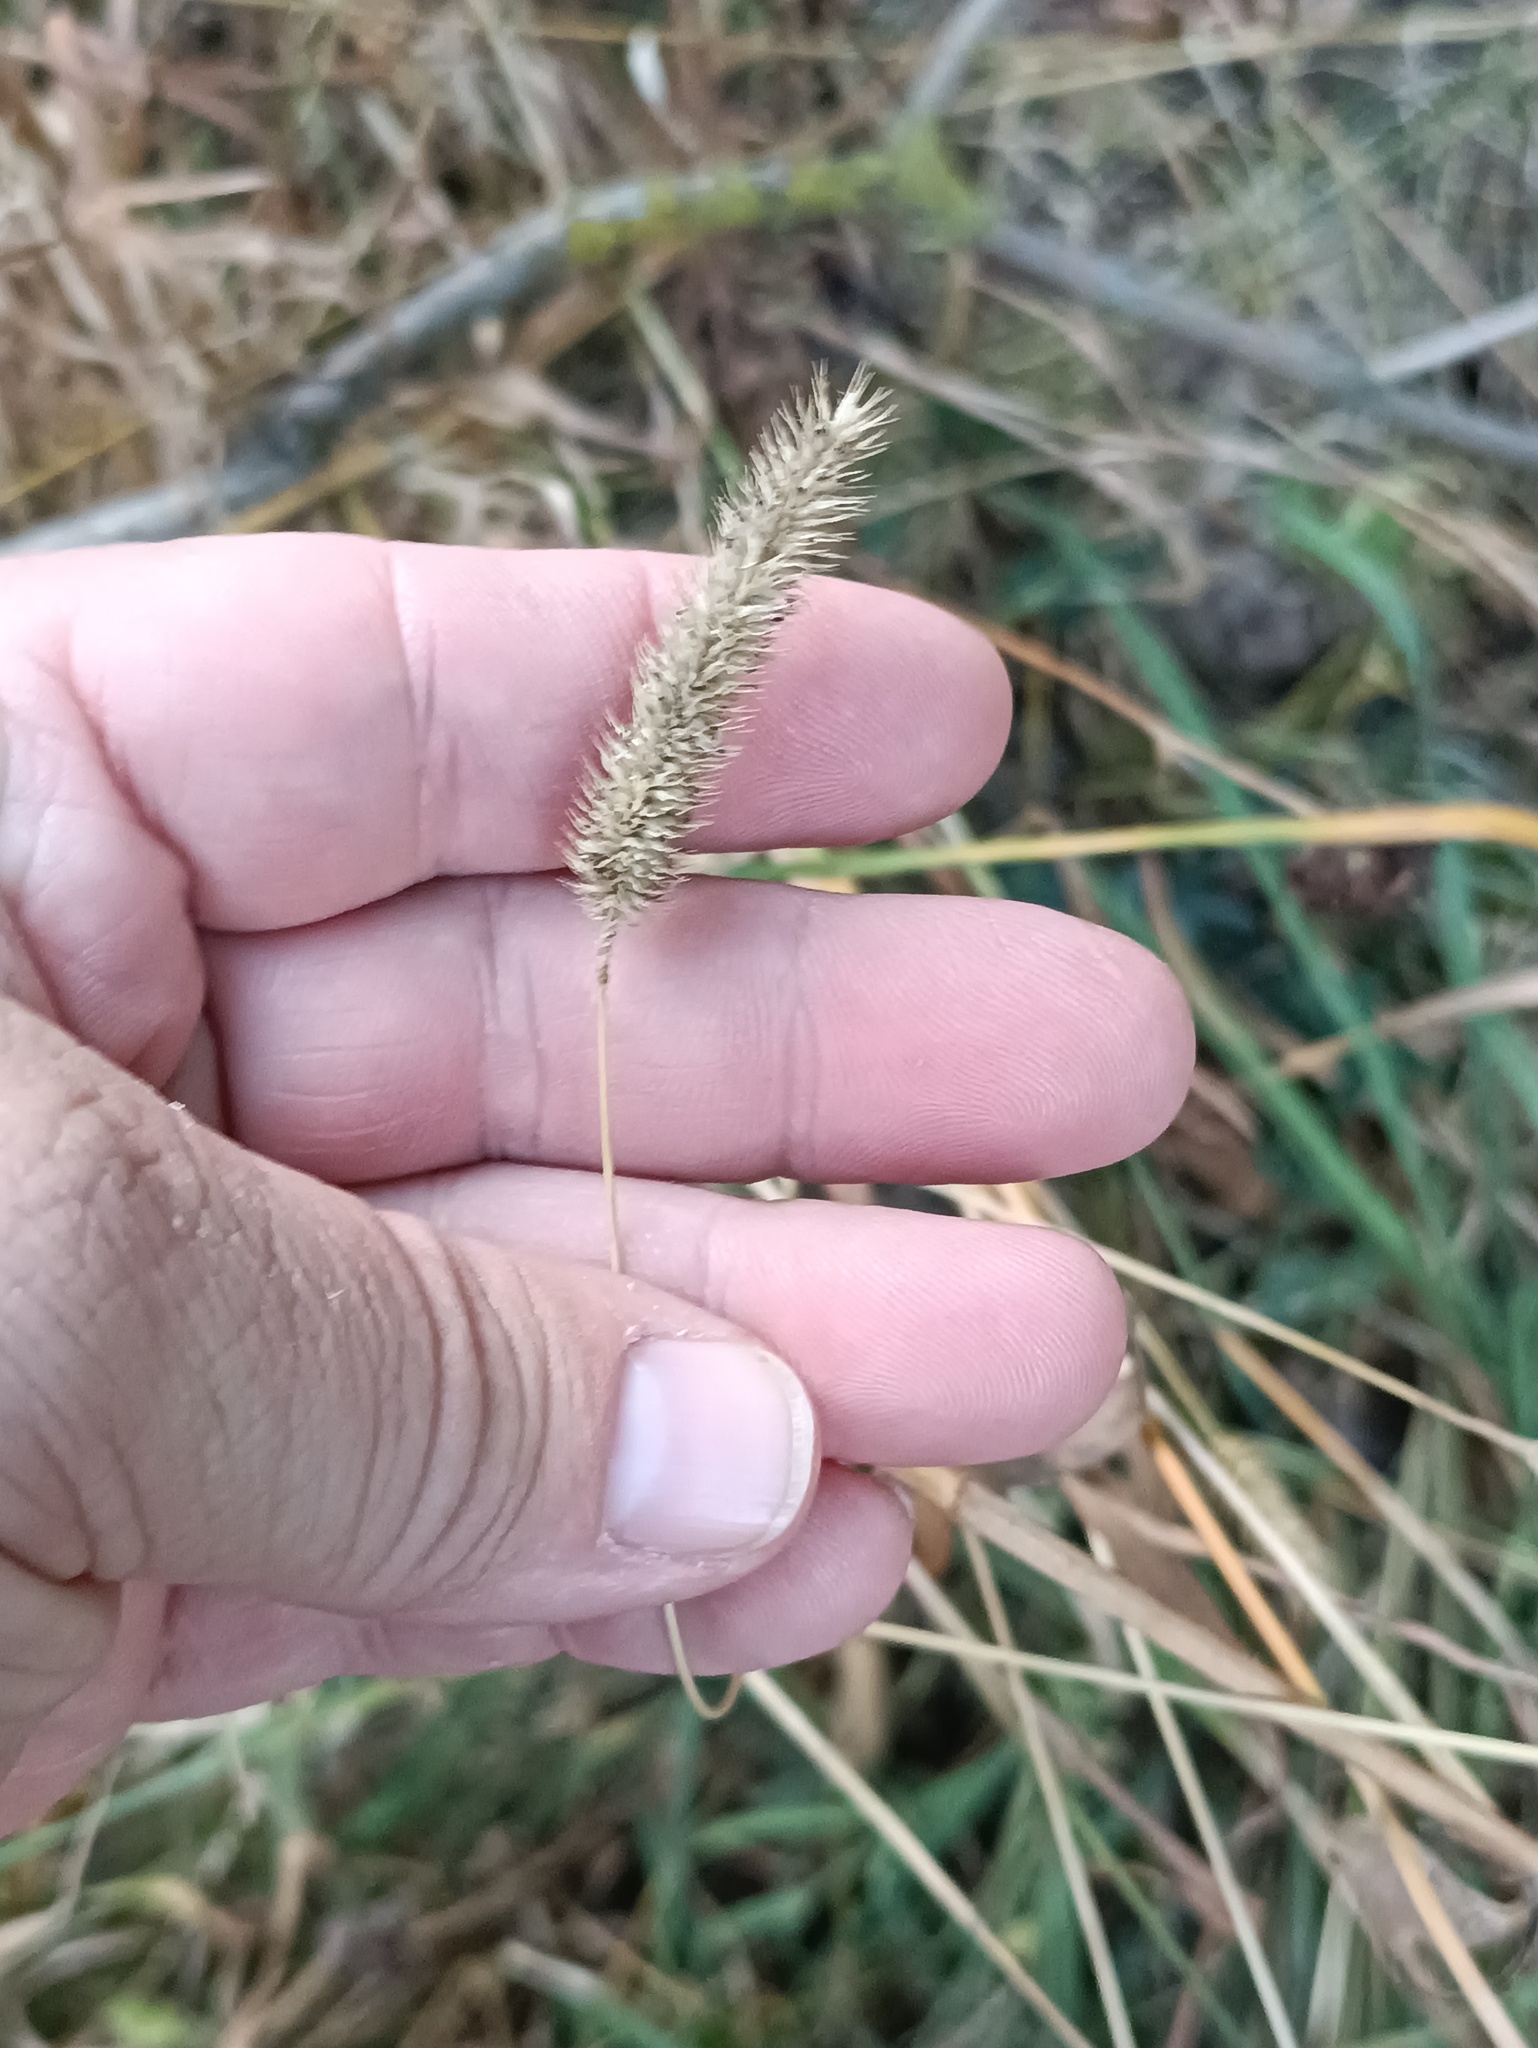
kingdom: Plantae
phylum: Tracheophyta
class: Liliopsida
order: Poales
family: Poaceae
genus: Phleum
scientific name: Phleum pratense
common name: Timothy grass
